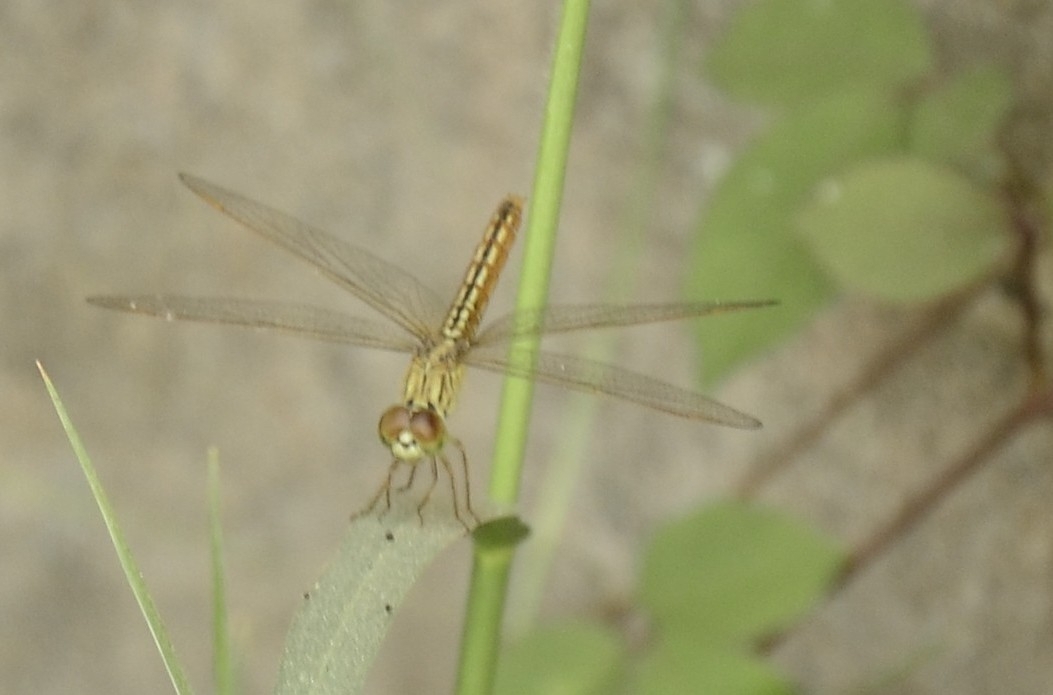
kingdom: Animalia
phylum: Arthropoda
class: Insecta
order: Odonata
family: Libellulidae
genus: Brachythemis
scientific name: Brachythemis contaminata
